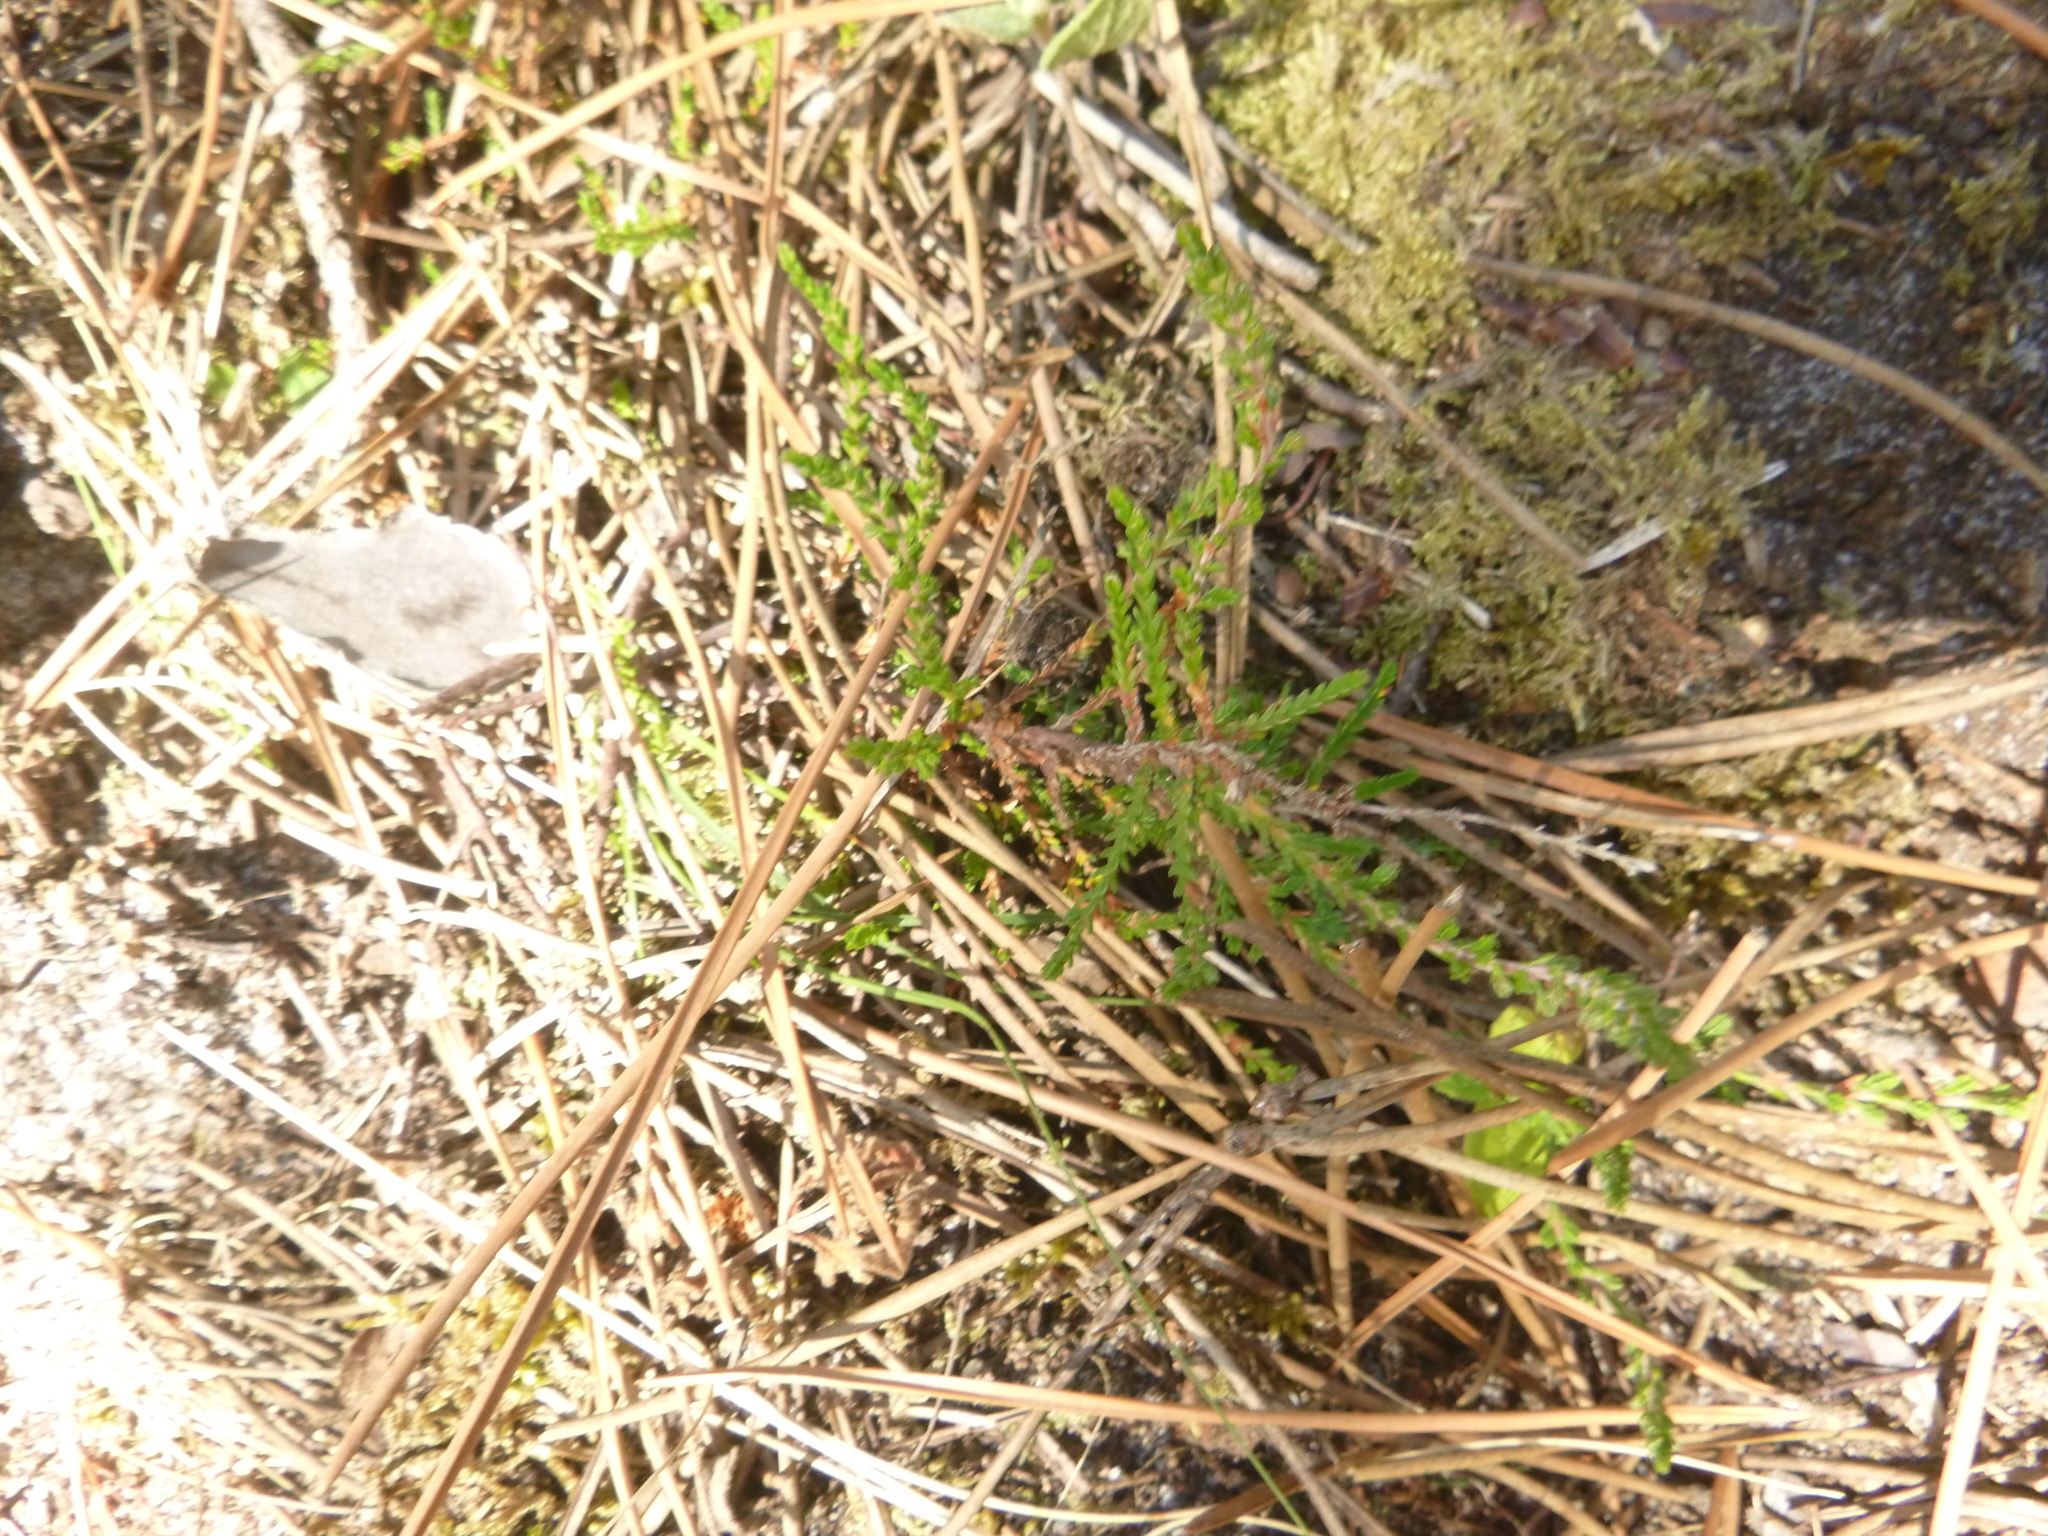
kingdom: Plantae
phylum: Tracheophyta
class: Magnoliopsida
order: Ericales
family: Ericaceae
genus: Calluna
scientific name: Calluna vulgaris
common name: Heather
